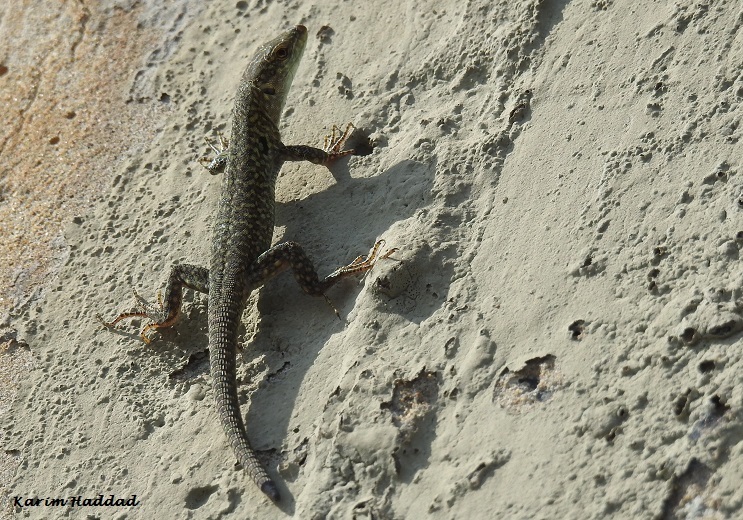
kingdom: Animalia
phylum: Chordata
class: Squamata
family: Lacertidae
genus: Podarcis
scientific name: Podarcis siculus
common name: Italian wall lizard
